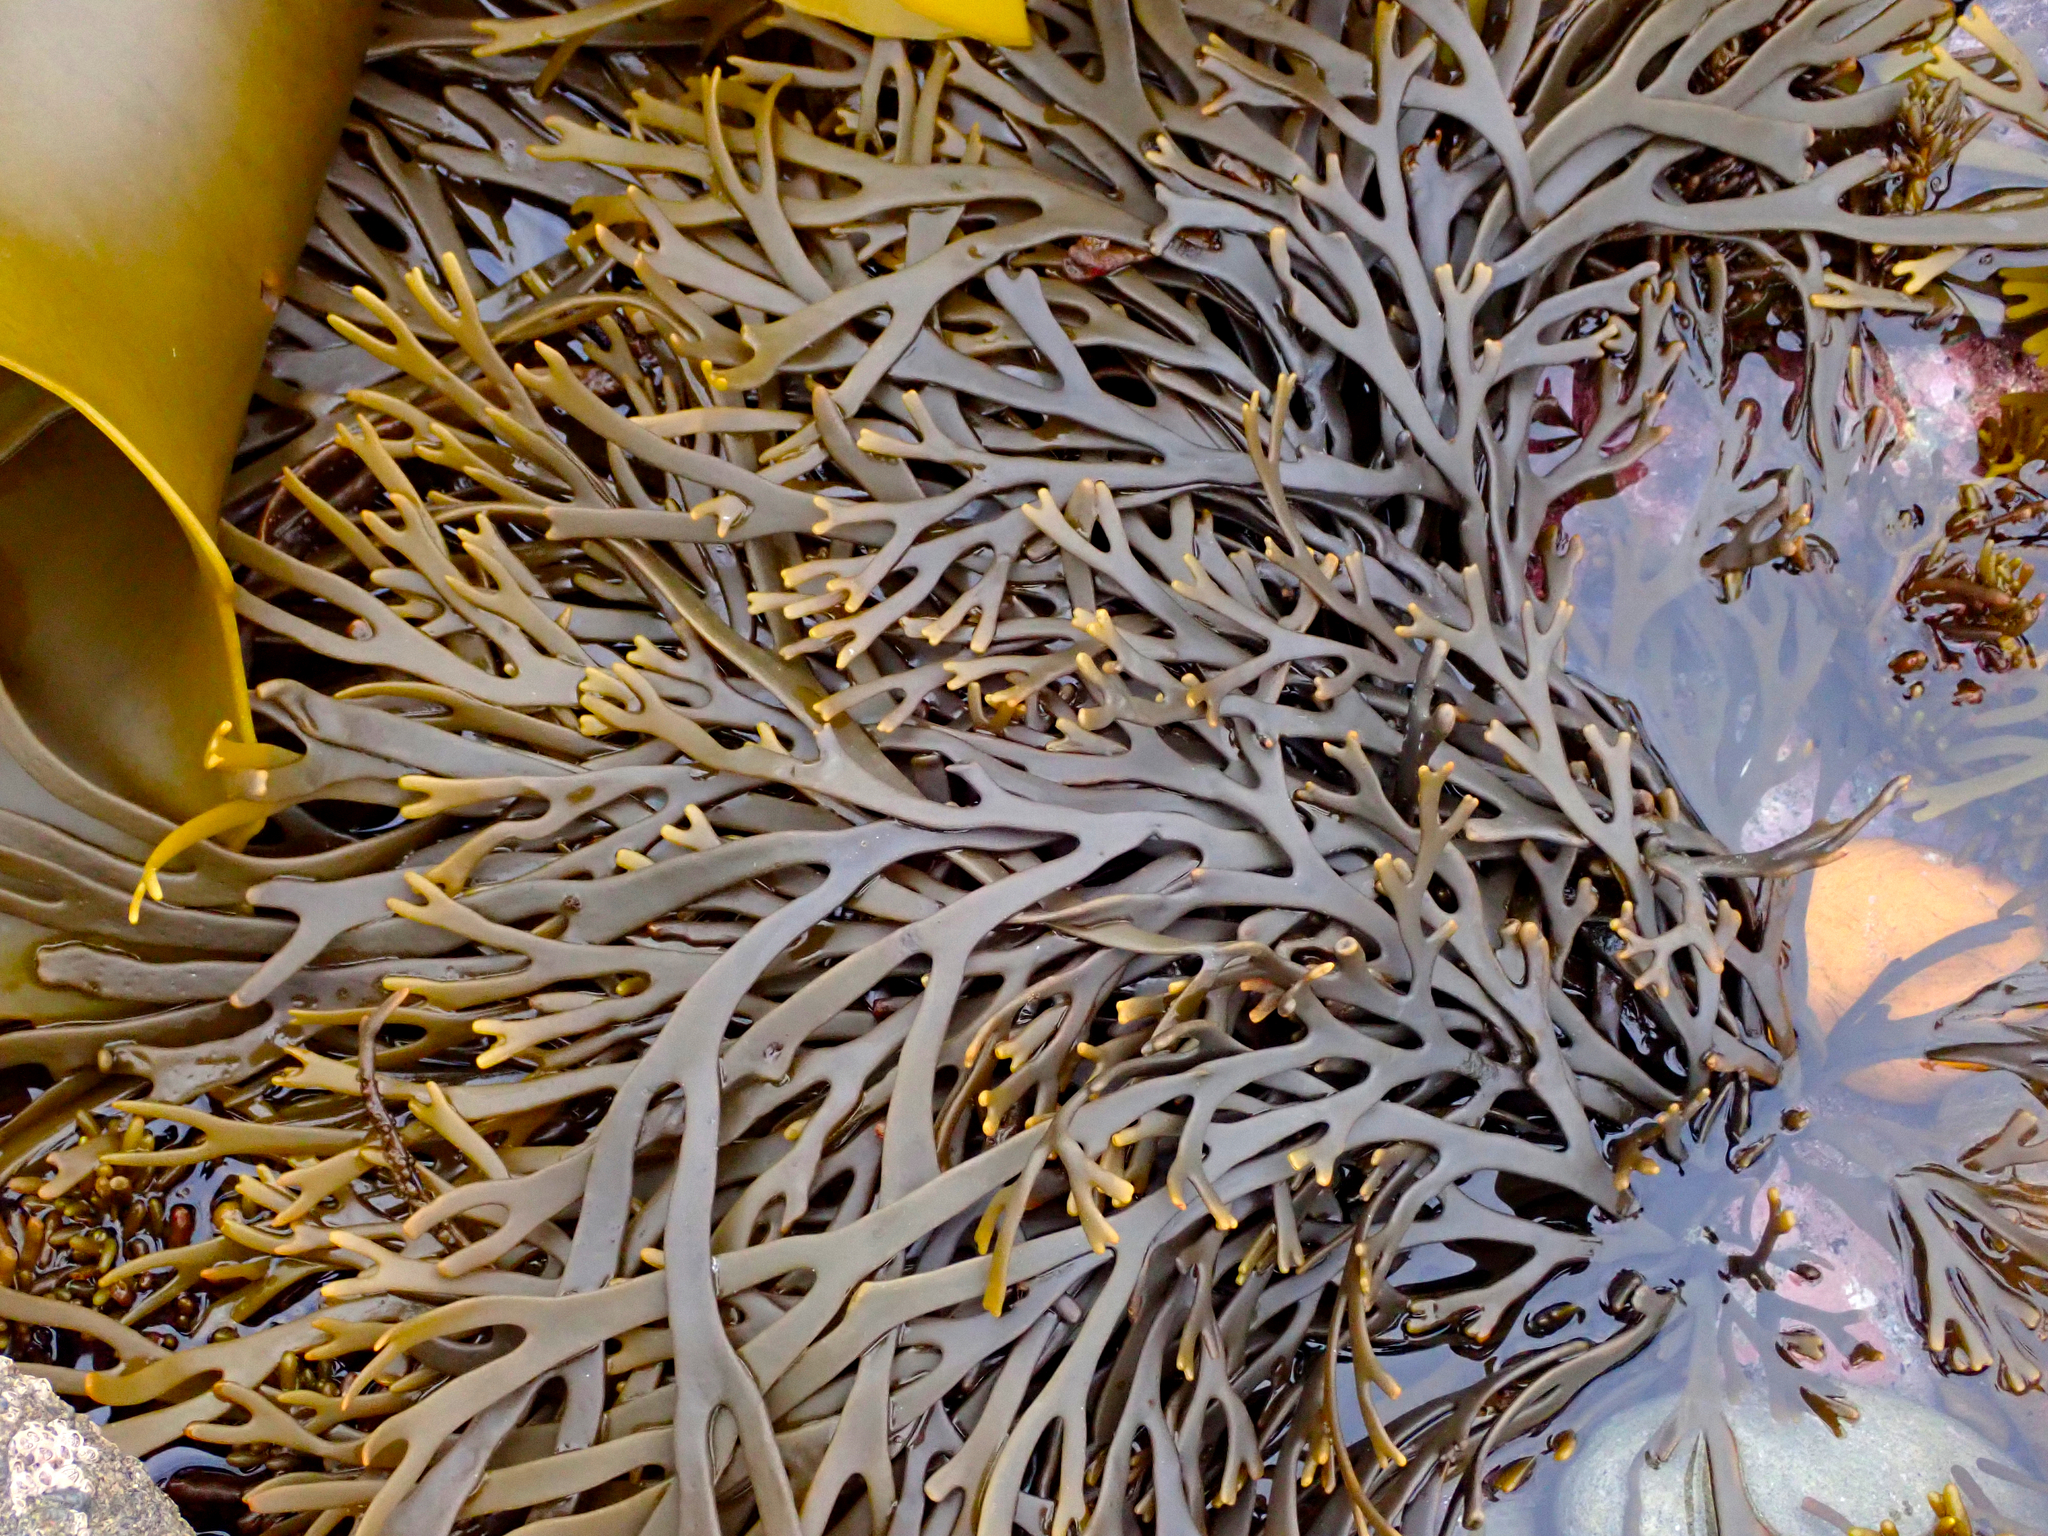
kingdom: Chromista
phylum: Ochrophyta
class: Phaeophyceae
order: Fucales
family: Xiphophoraceae
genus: Xiphophora
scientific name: Xiphophora gladiata
